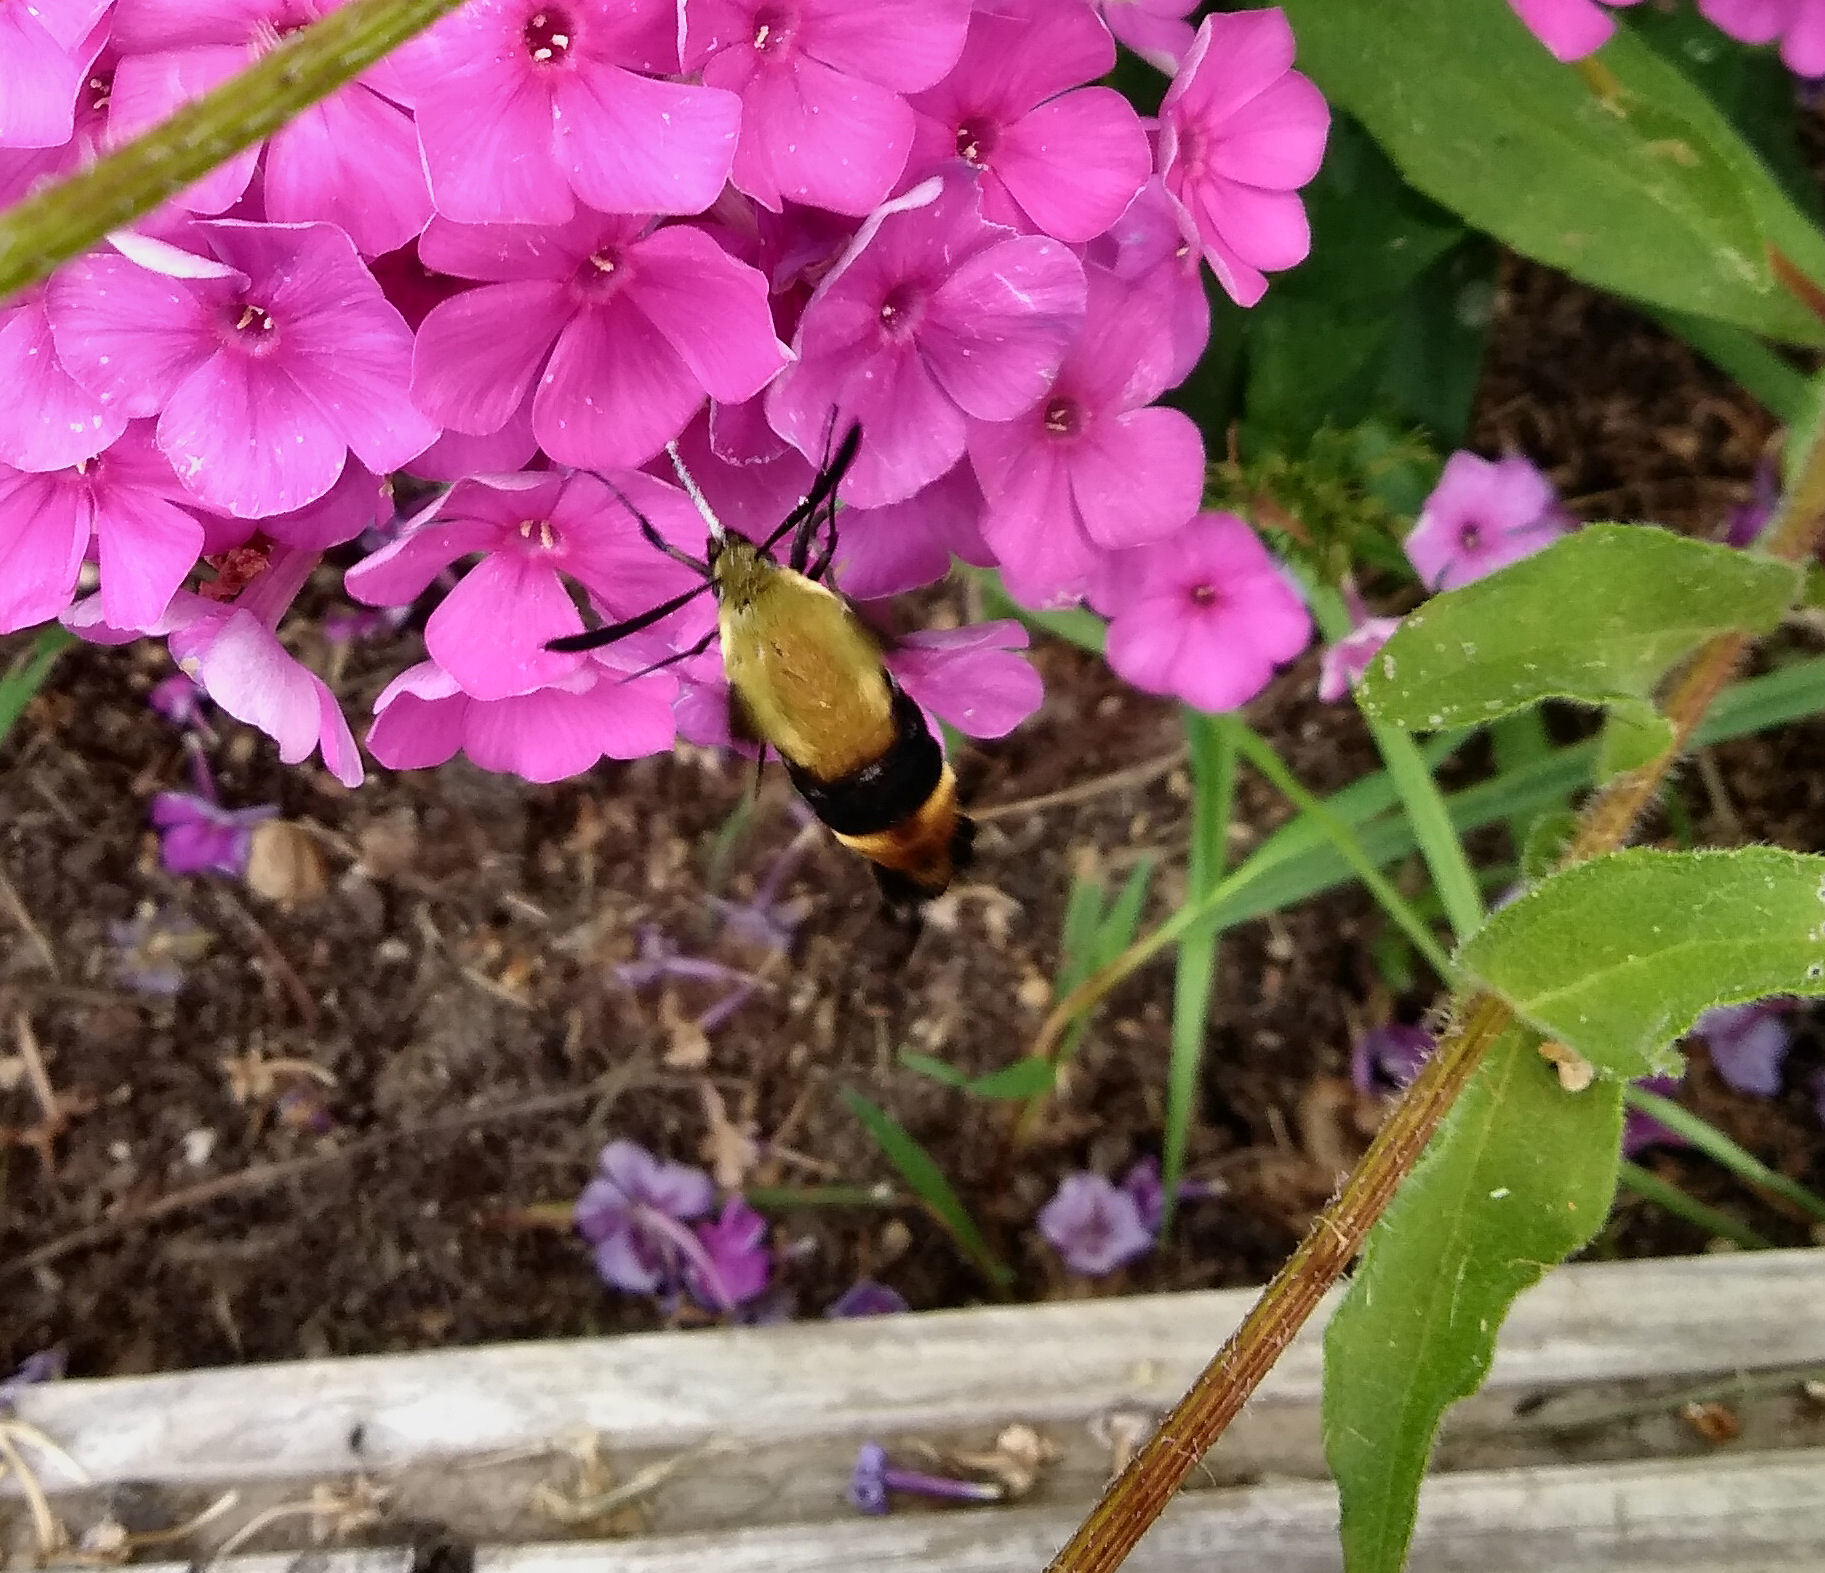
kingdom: Animalia
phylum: Arthropoda
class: Insecta
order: Lepidoptera
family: Sphingidae
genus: Hemaris
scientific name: Hemaris diffinis
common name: Bumblebee moth
